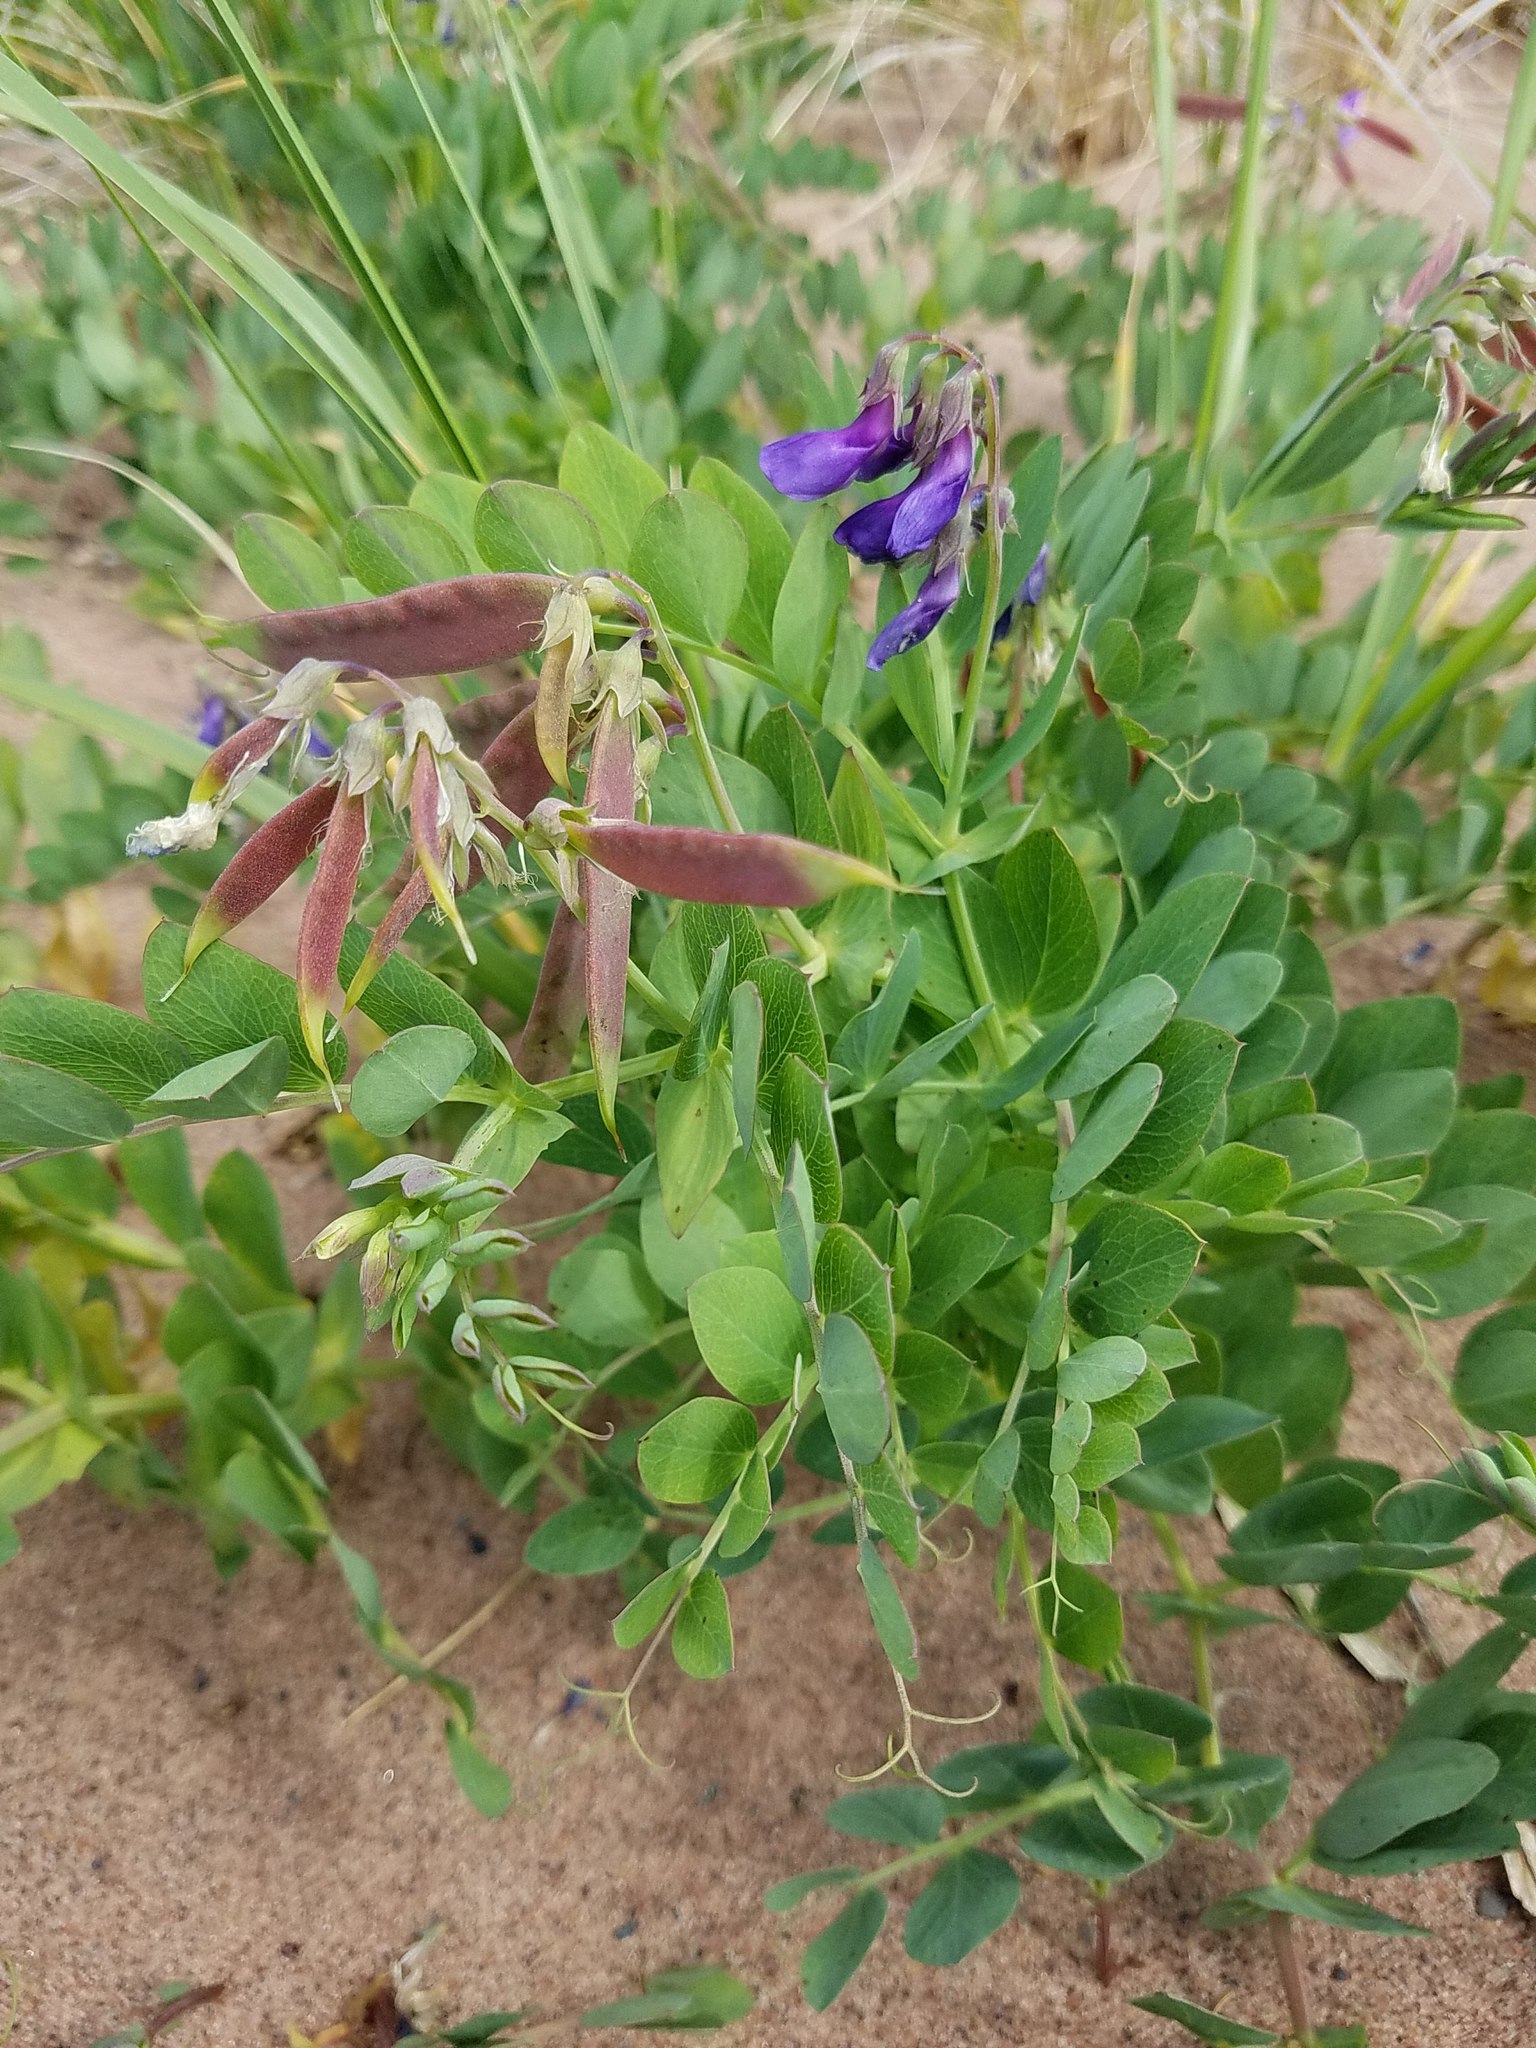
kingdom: Plantae
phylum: Tracheophyta
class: Magnoliopsida
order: Fabales
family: Fabaceae
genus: Lathyrus
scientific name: Lathyrus japonicus
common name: Sea pea
